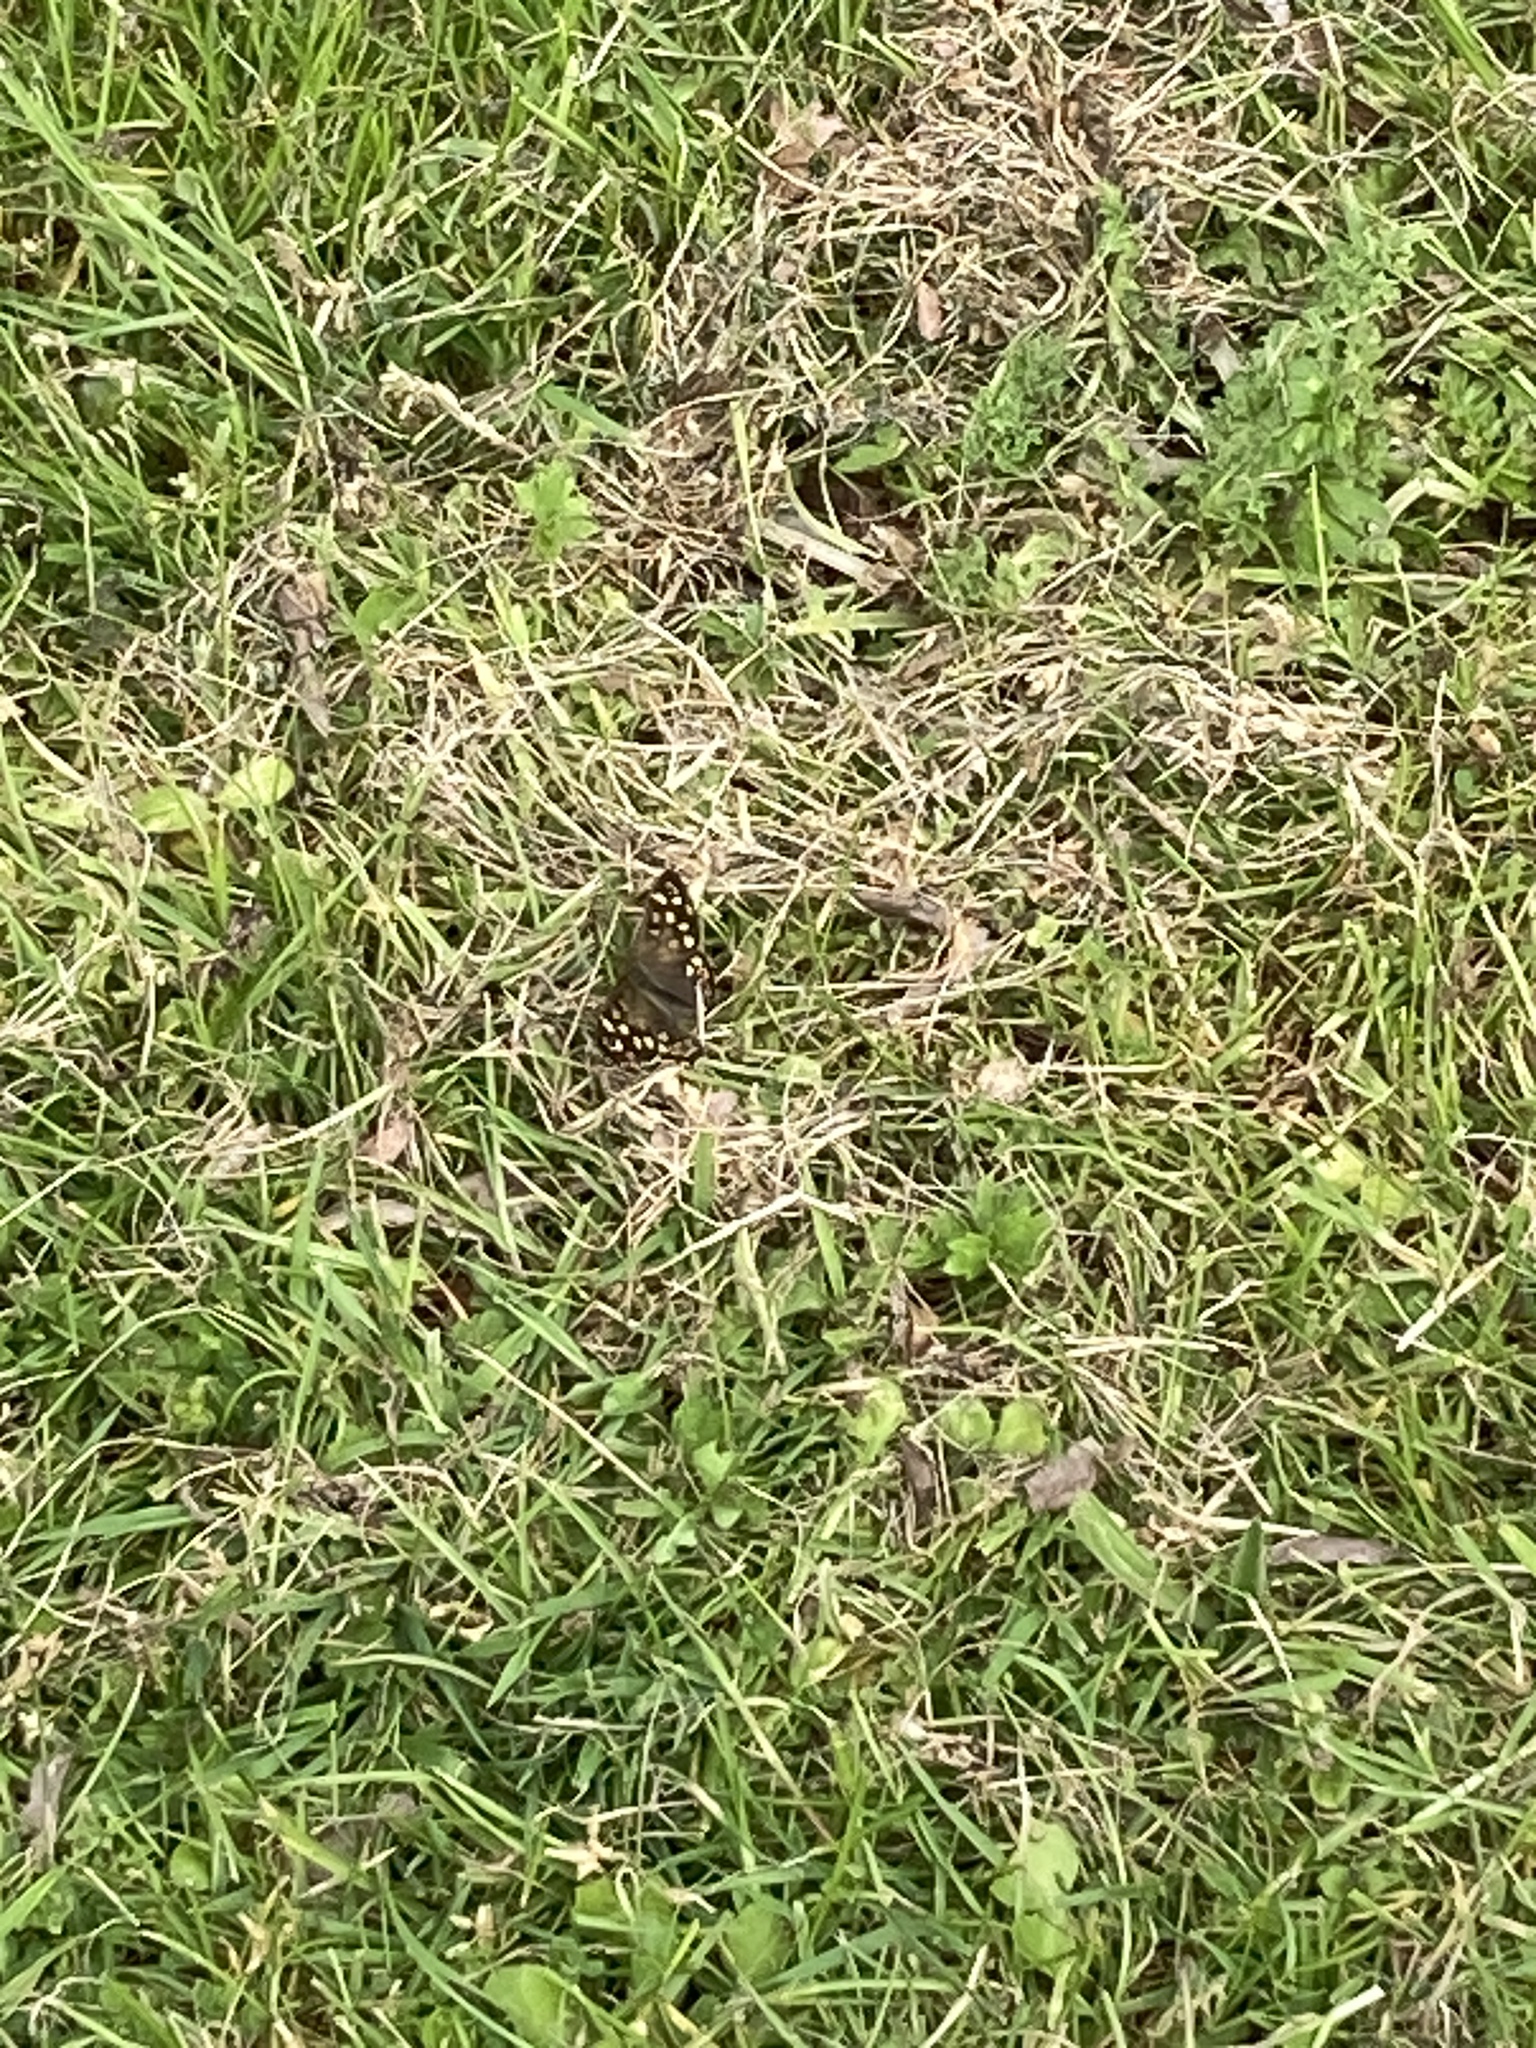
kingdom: Animalia
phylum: Arthropoda
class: Insecta
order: Lepidoptera
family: Nymphalidae
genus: Pararge
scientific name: Pararge aegeria
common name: Speckled wood
